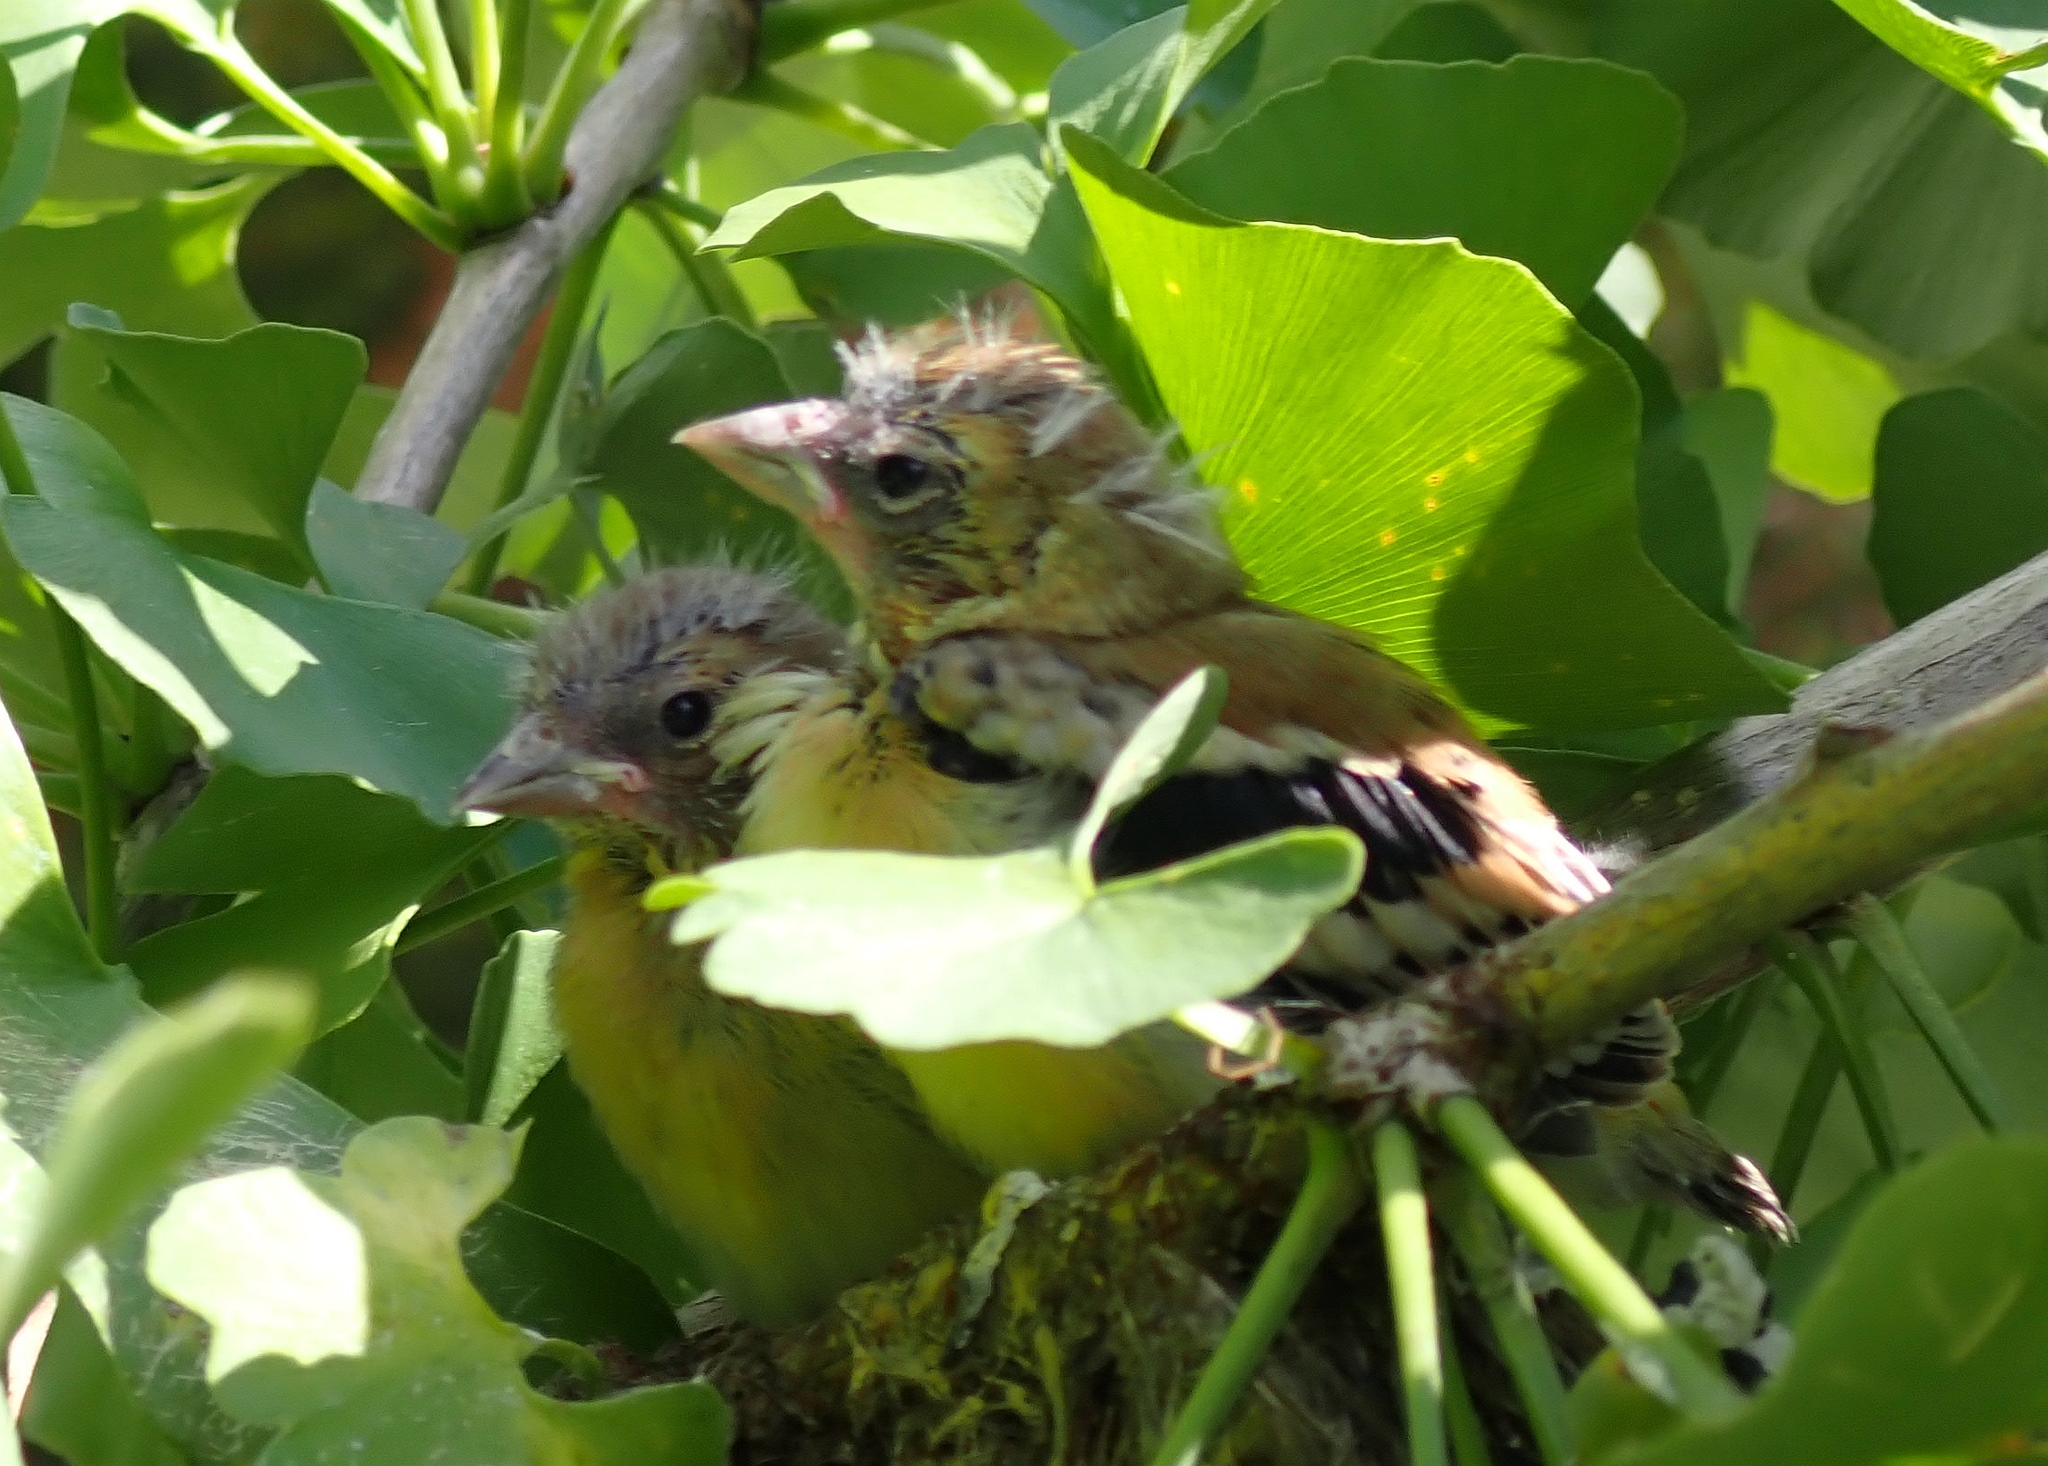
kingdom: Animalia
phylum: Chordata
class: Aves
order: Passeriformes
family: Fringillidae
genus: Spinus
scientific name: Spinus tristis
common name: American goldfinch
